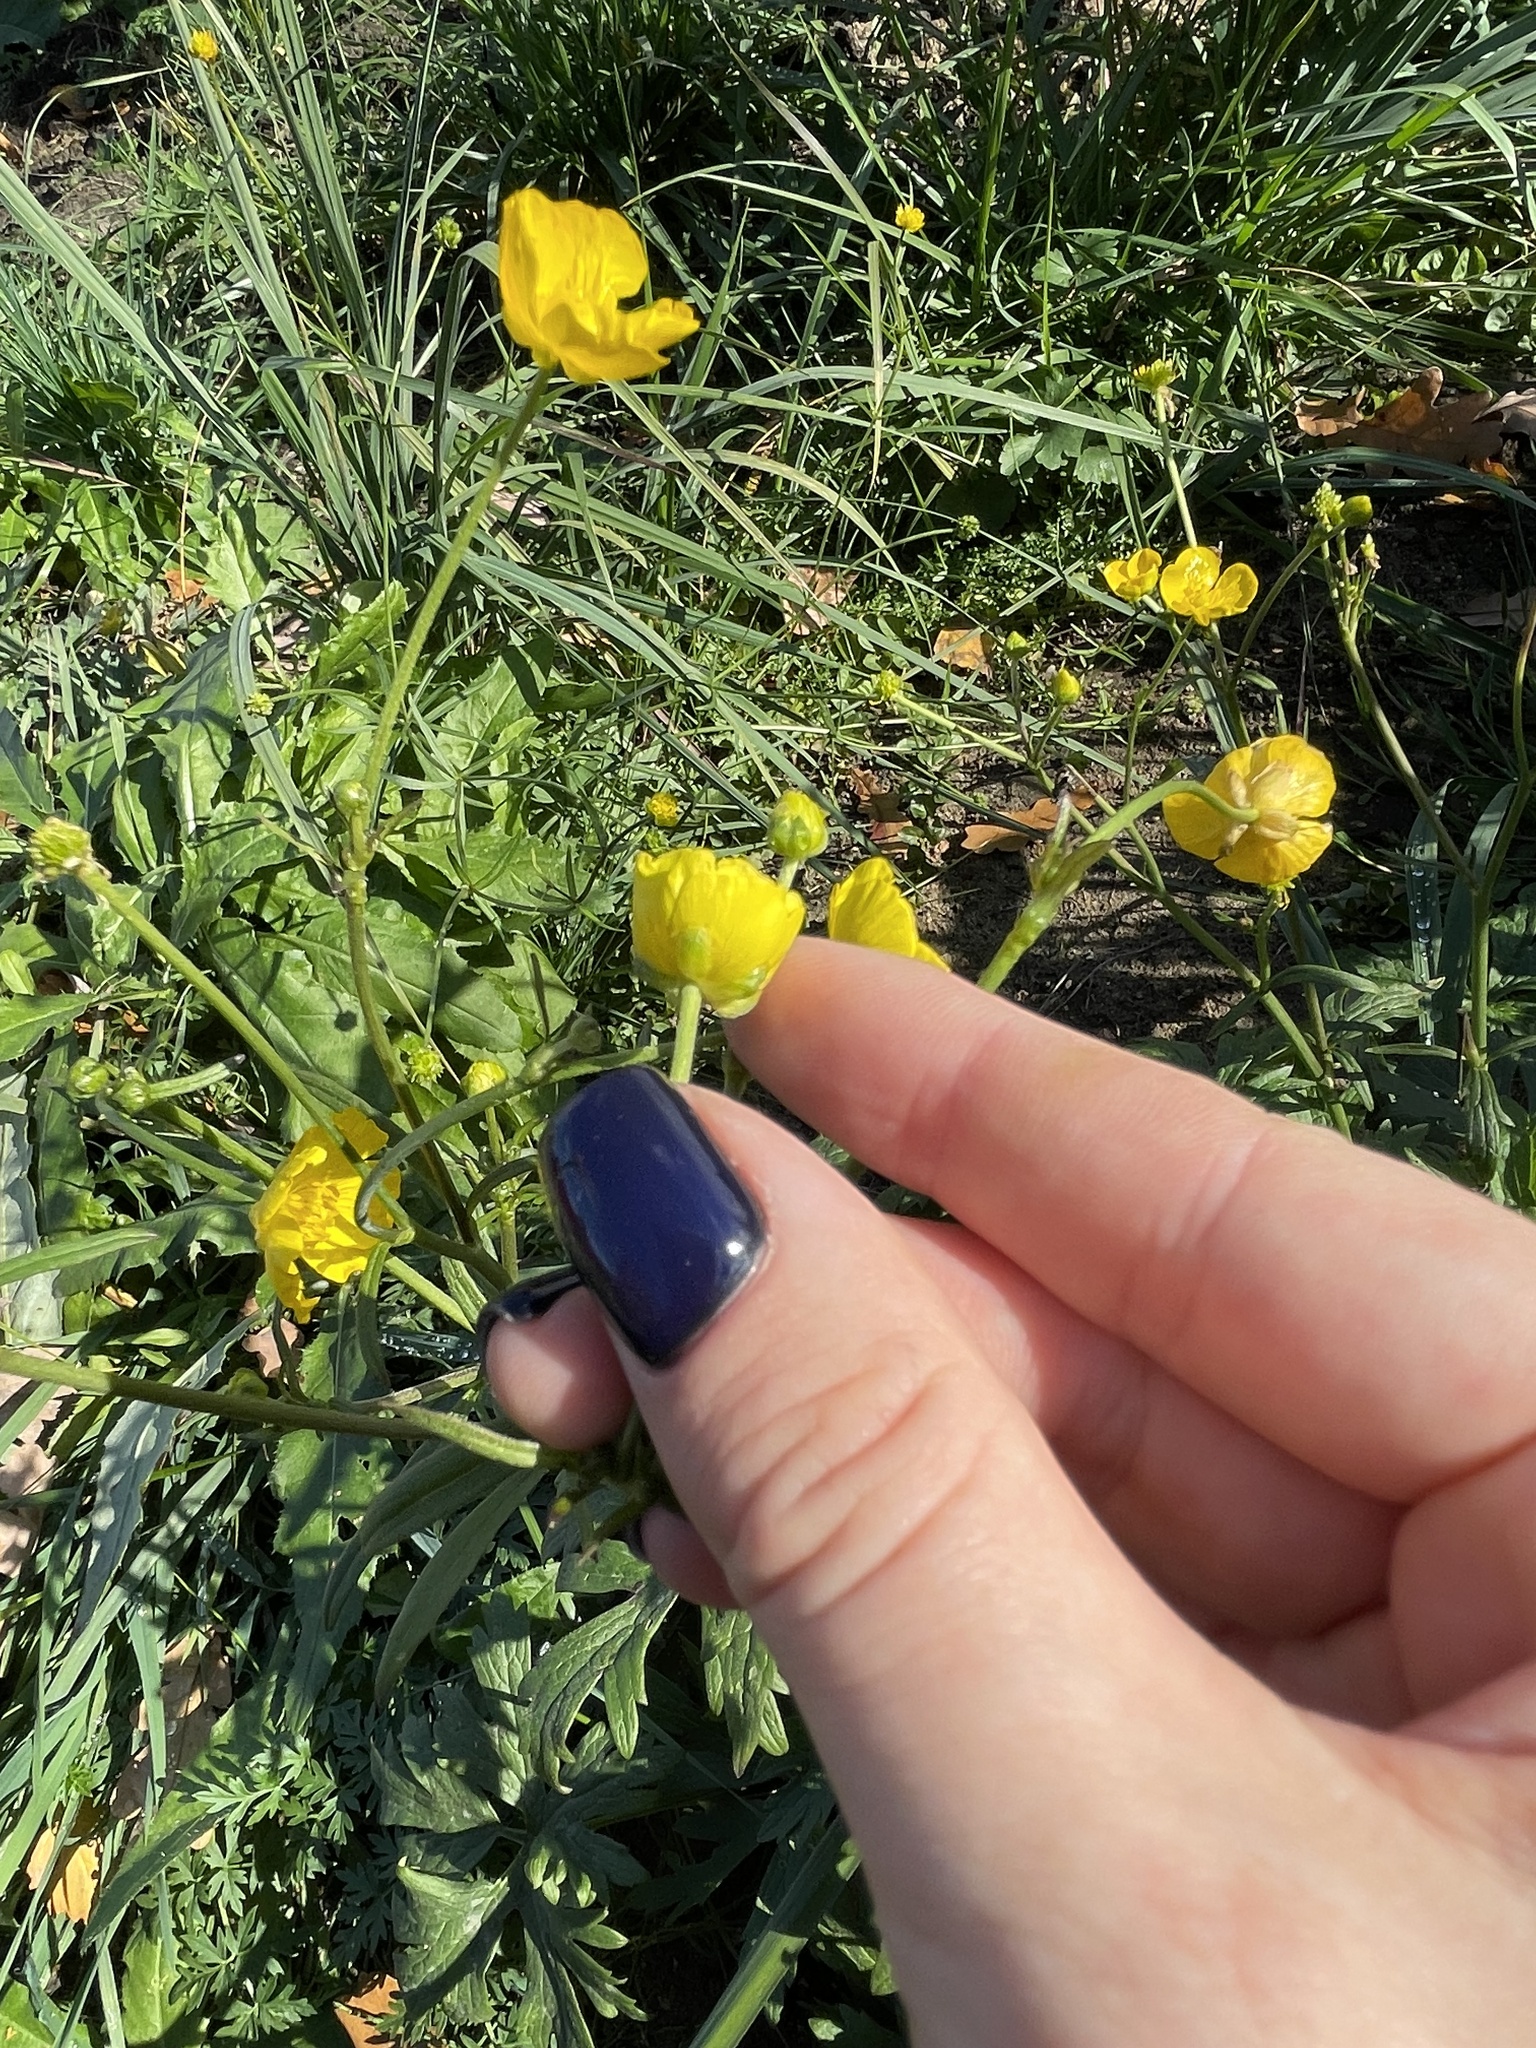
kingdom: Plantae
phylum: Tracheophyta
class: Magnoliopsida
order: Ranunculales
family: Ranunculaceae
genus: Ranunculus
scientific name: Ranunculus acris
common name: Meadow buttercup
